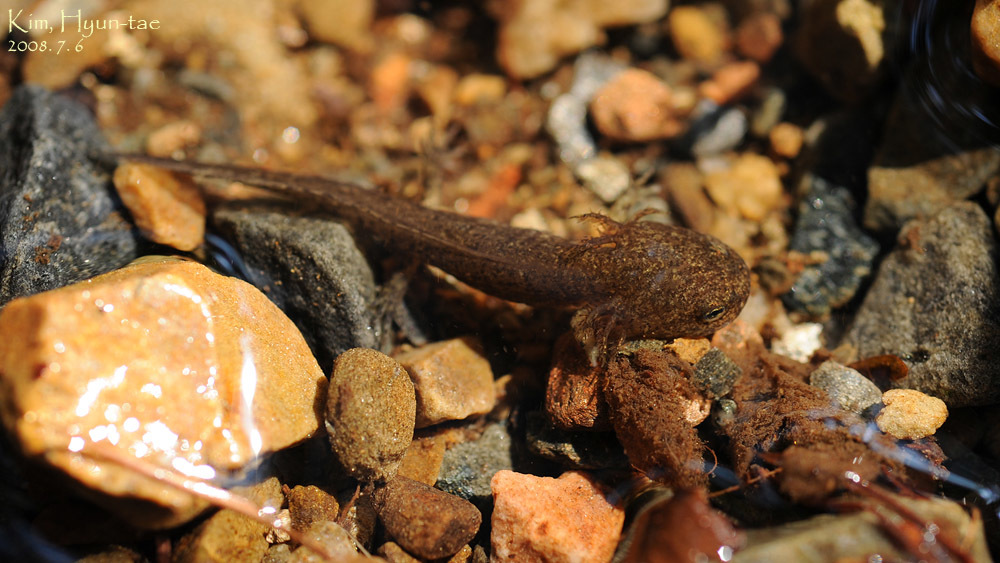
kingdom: Animalia
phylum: Chordata
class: Amphibia
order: Caudata
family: Hynobiidae
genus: Hynobius
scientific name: Hynobius leechii
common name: Gensan salamander
